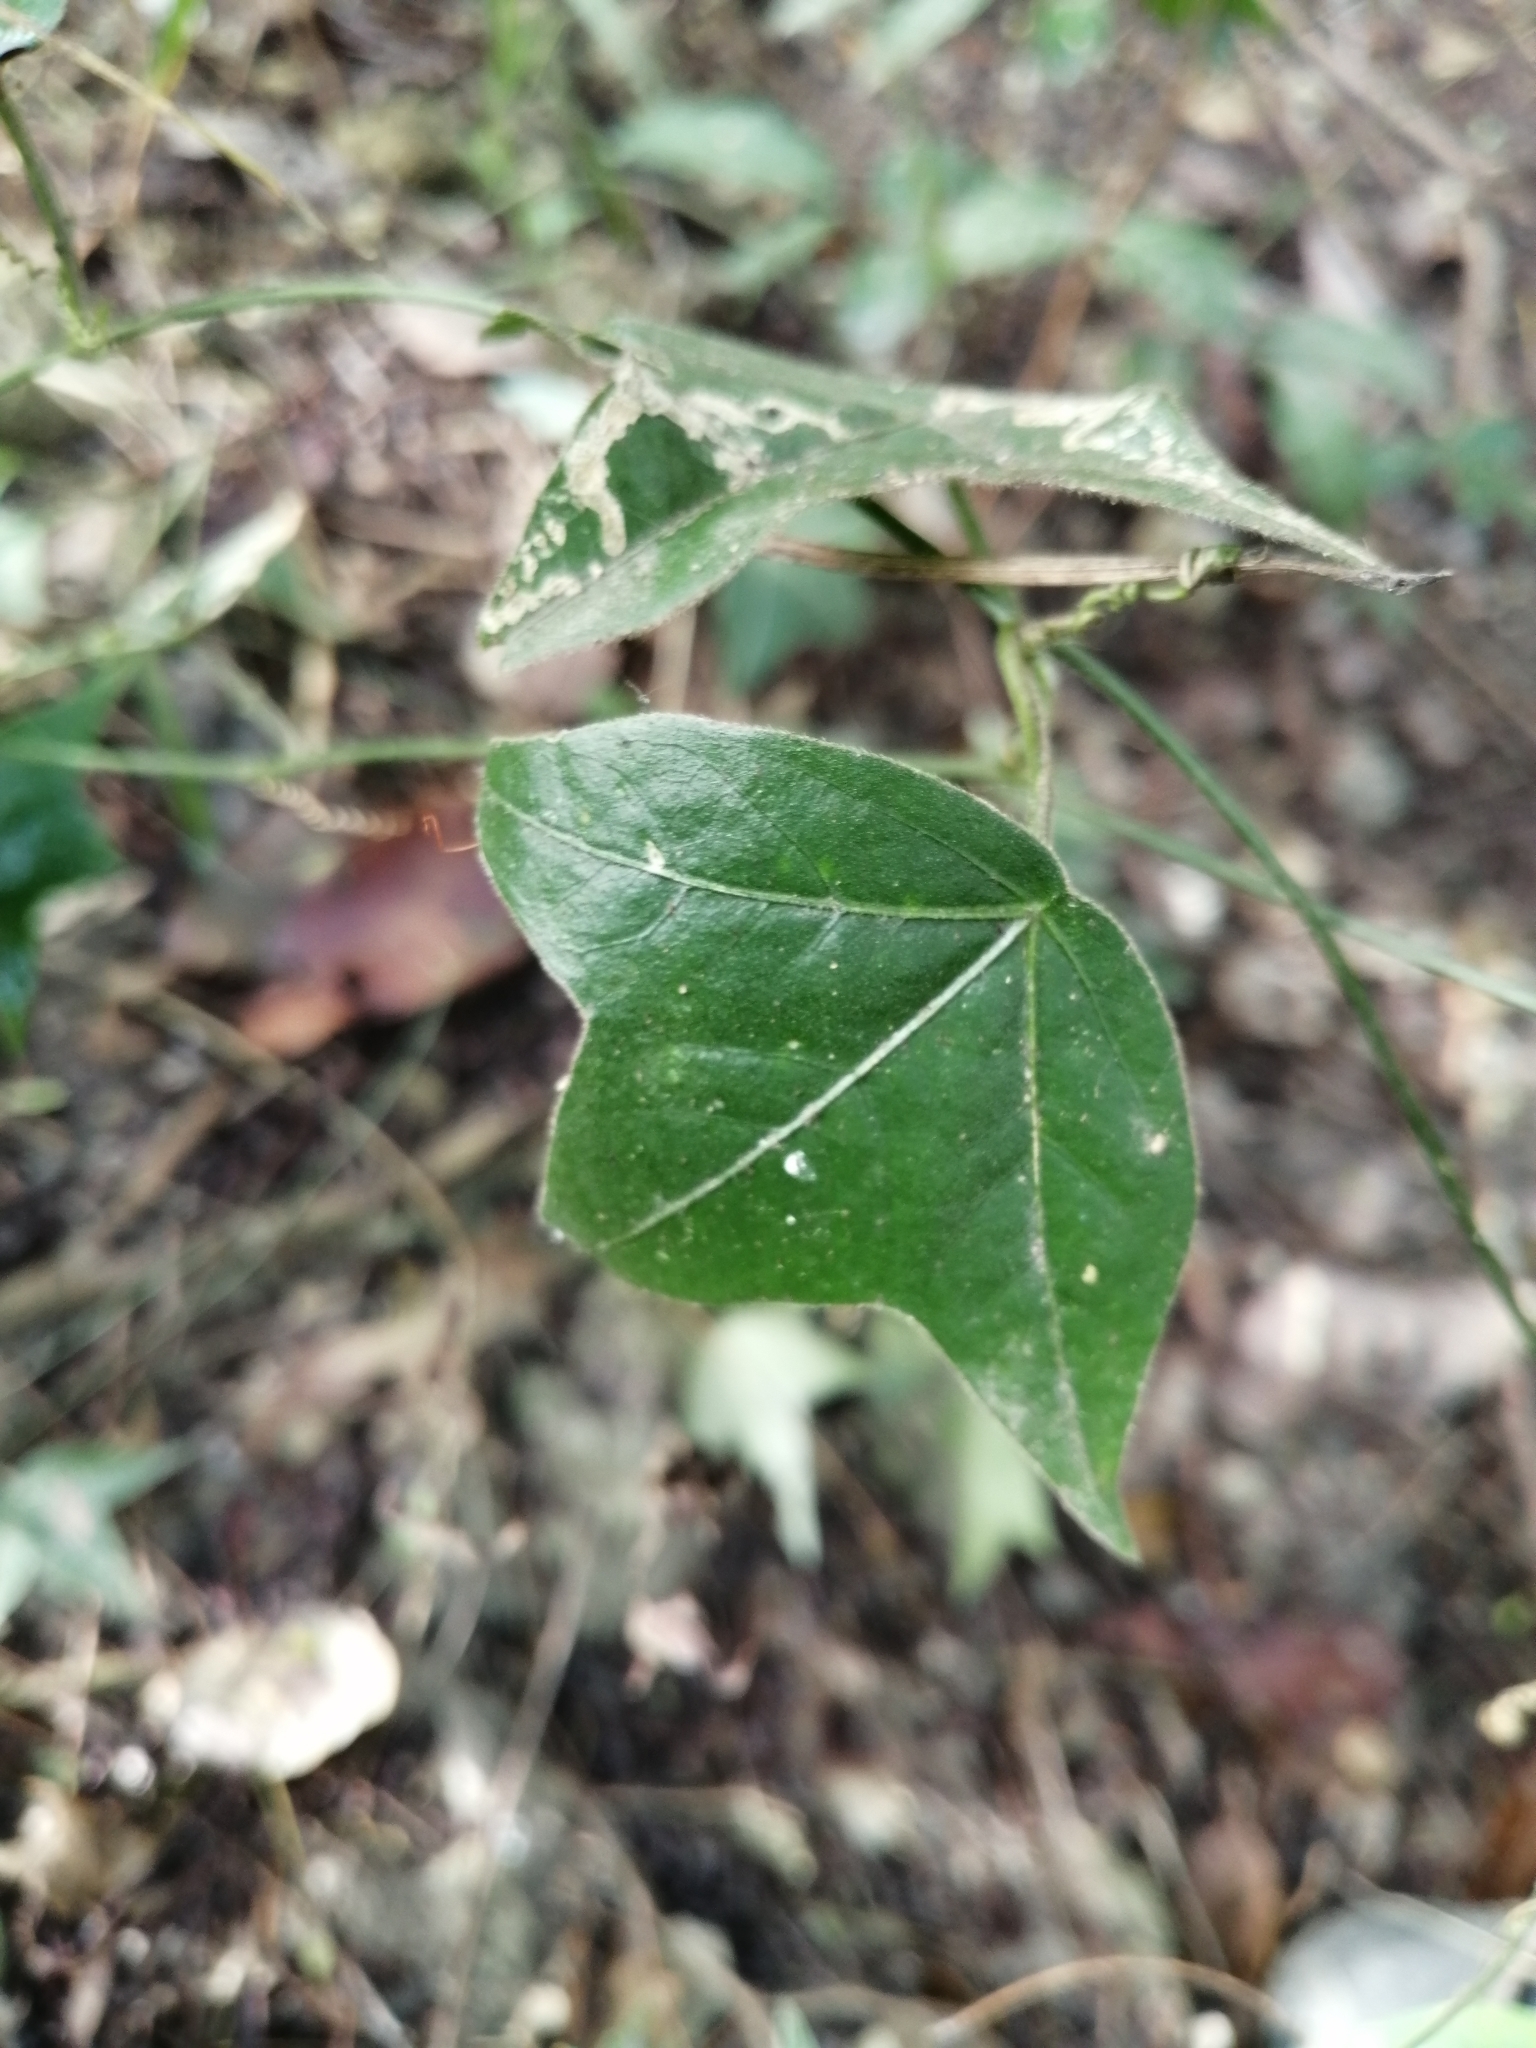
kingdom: Plantae
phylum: Tracheophyta
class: Magnoliopsida
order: Malpighiales
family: Passifloraceae
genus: Passiflora
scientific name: Passiflora suberosa
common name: Wild passionfruit
